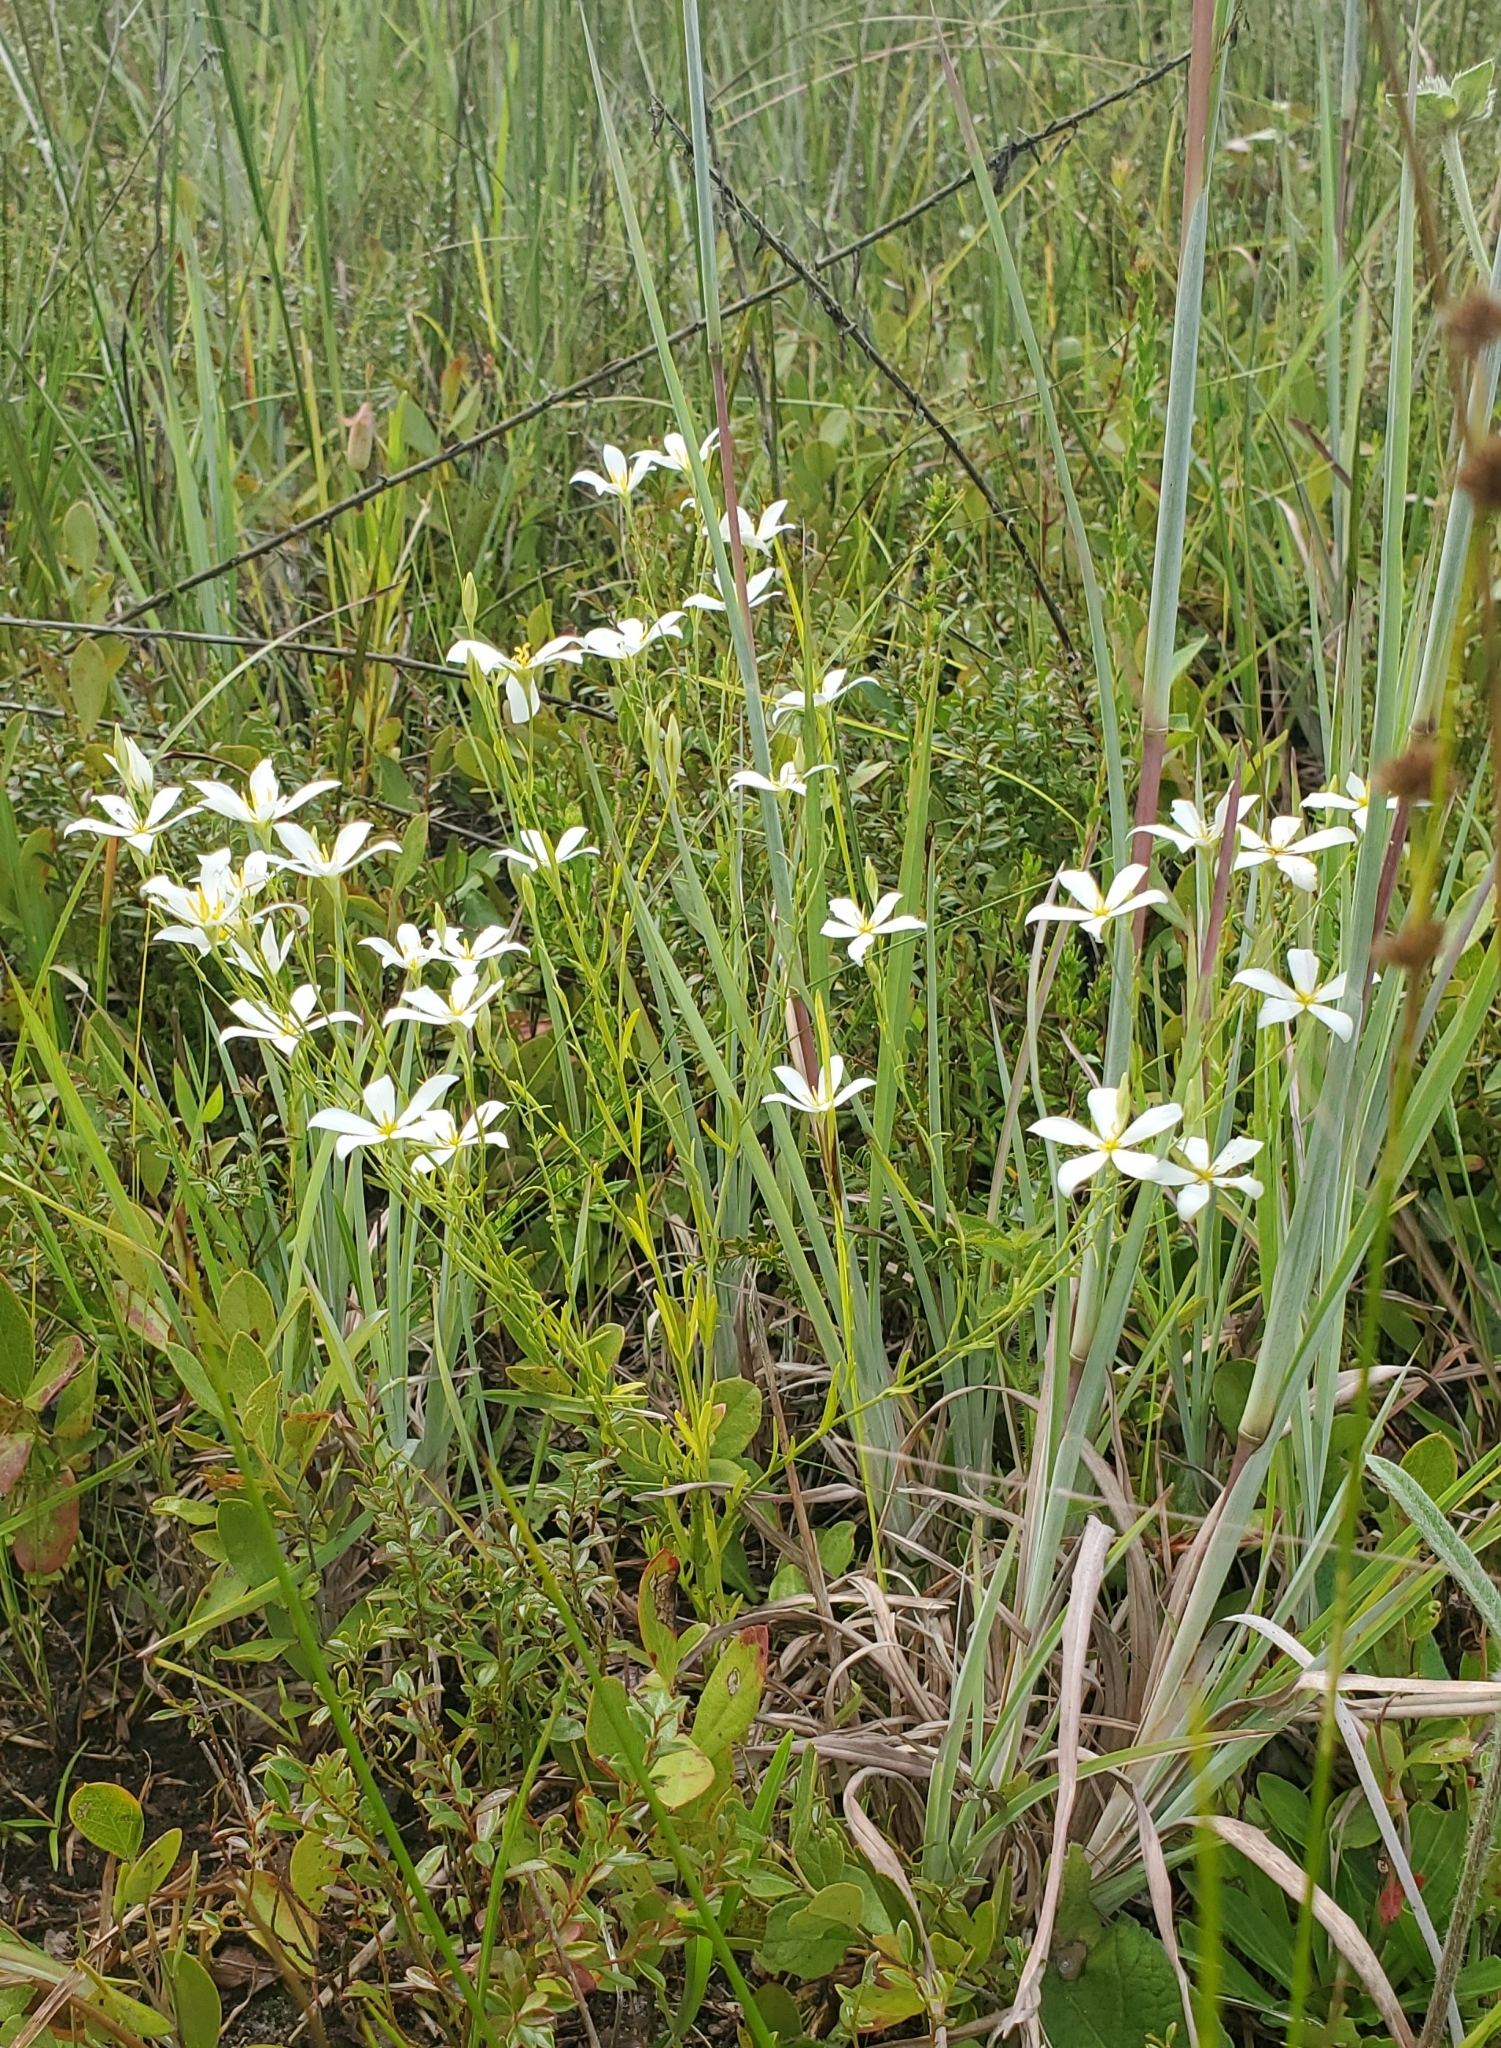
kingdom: Plantae
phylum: Tracheophyta
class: Magnoliopsida
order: Gentianales
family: Gentianaceae
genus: Sabatia
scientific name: Sabatia brevifolia
